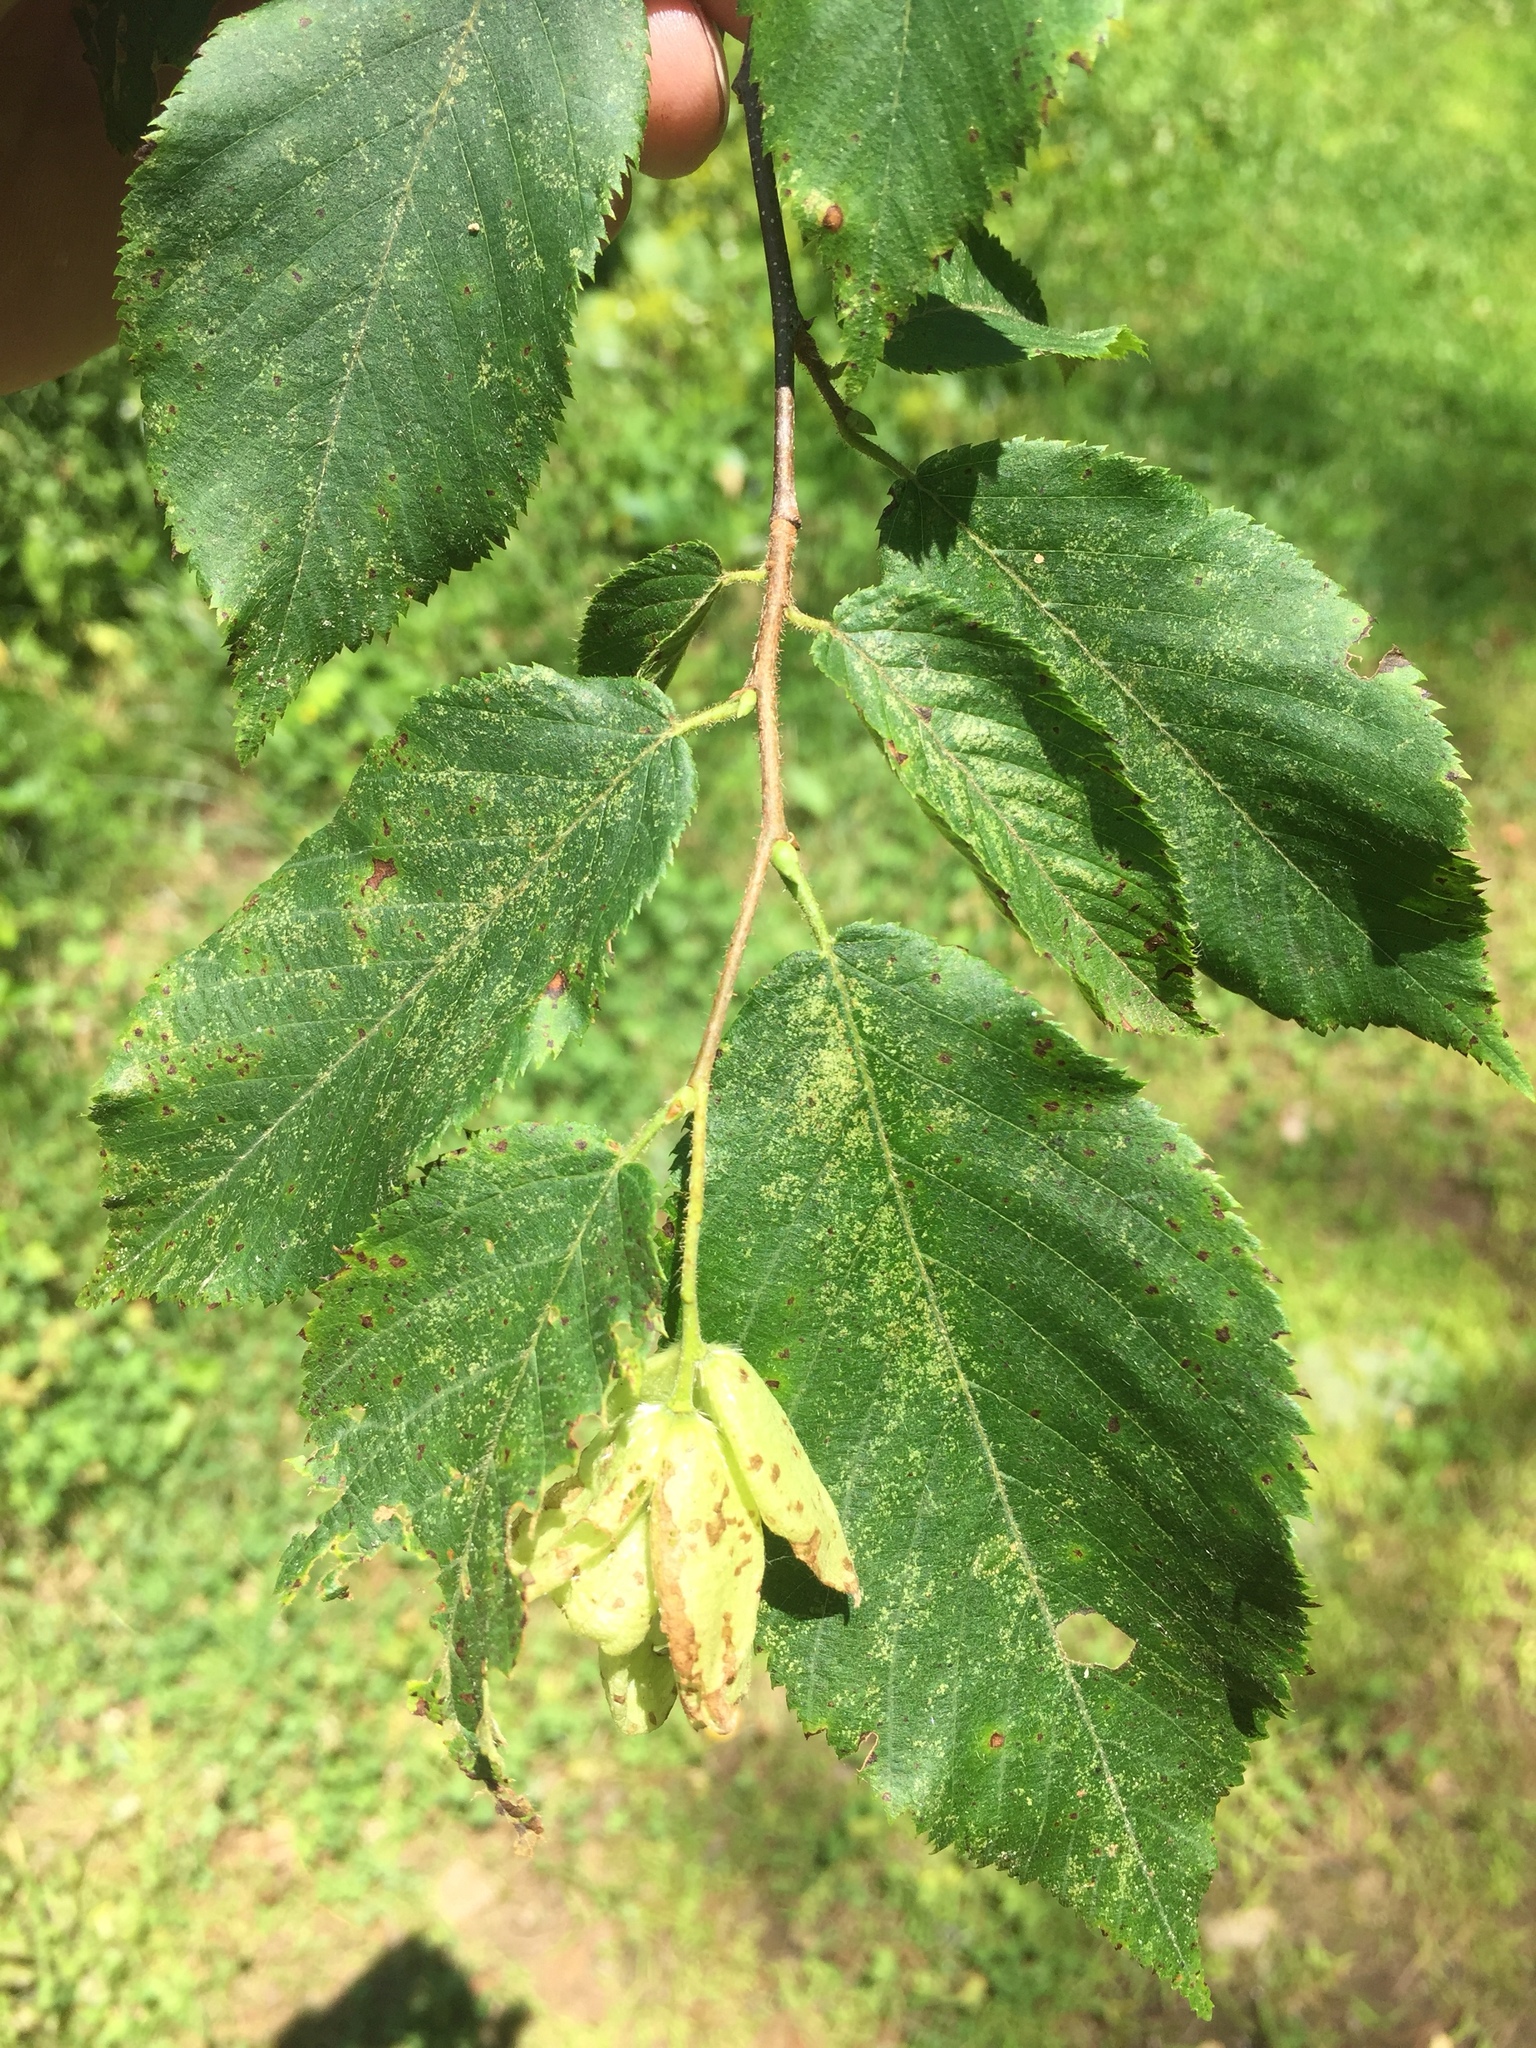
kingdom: Plantae
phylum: Tracheophyta
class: Magnoliopsida
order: Fagales
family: Betulaceae
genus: Ostrya
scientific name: Ostrya virginiana
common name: Ironwood
